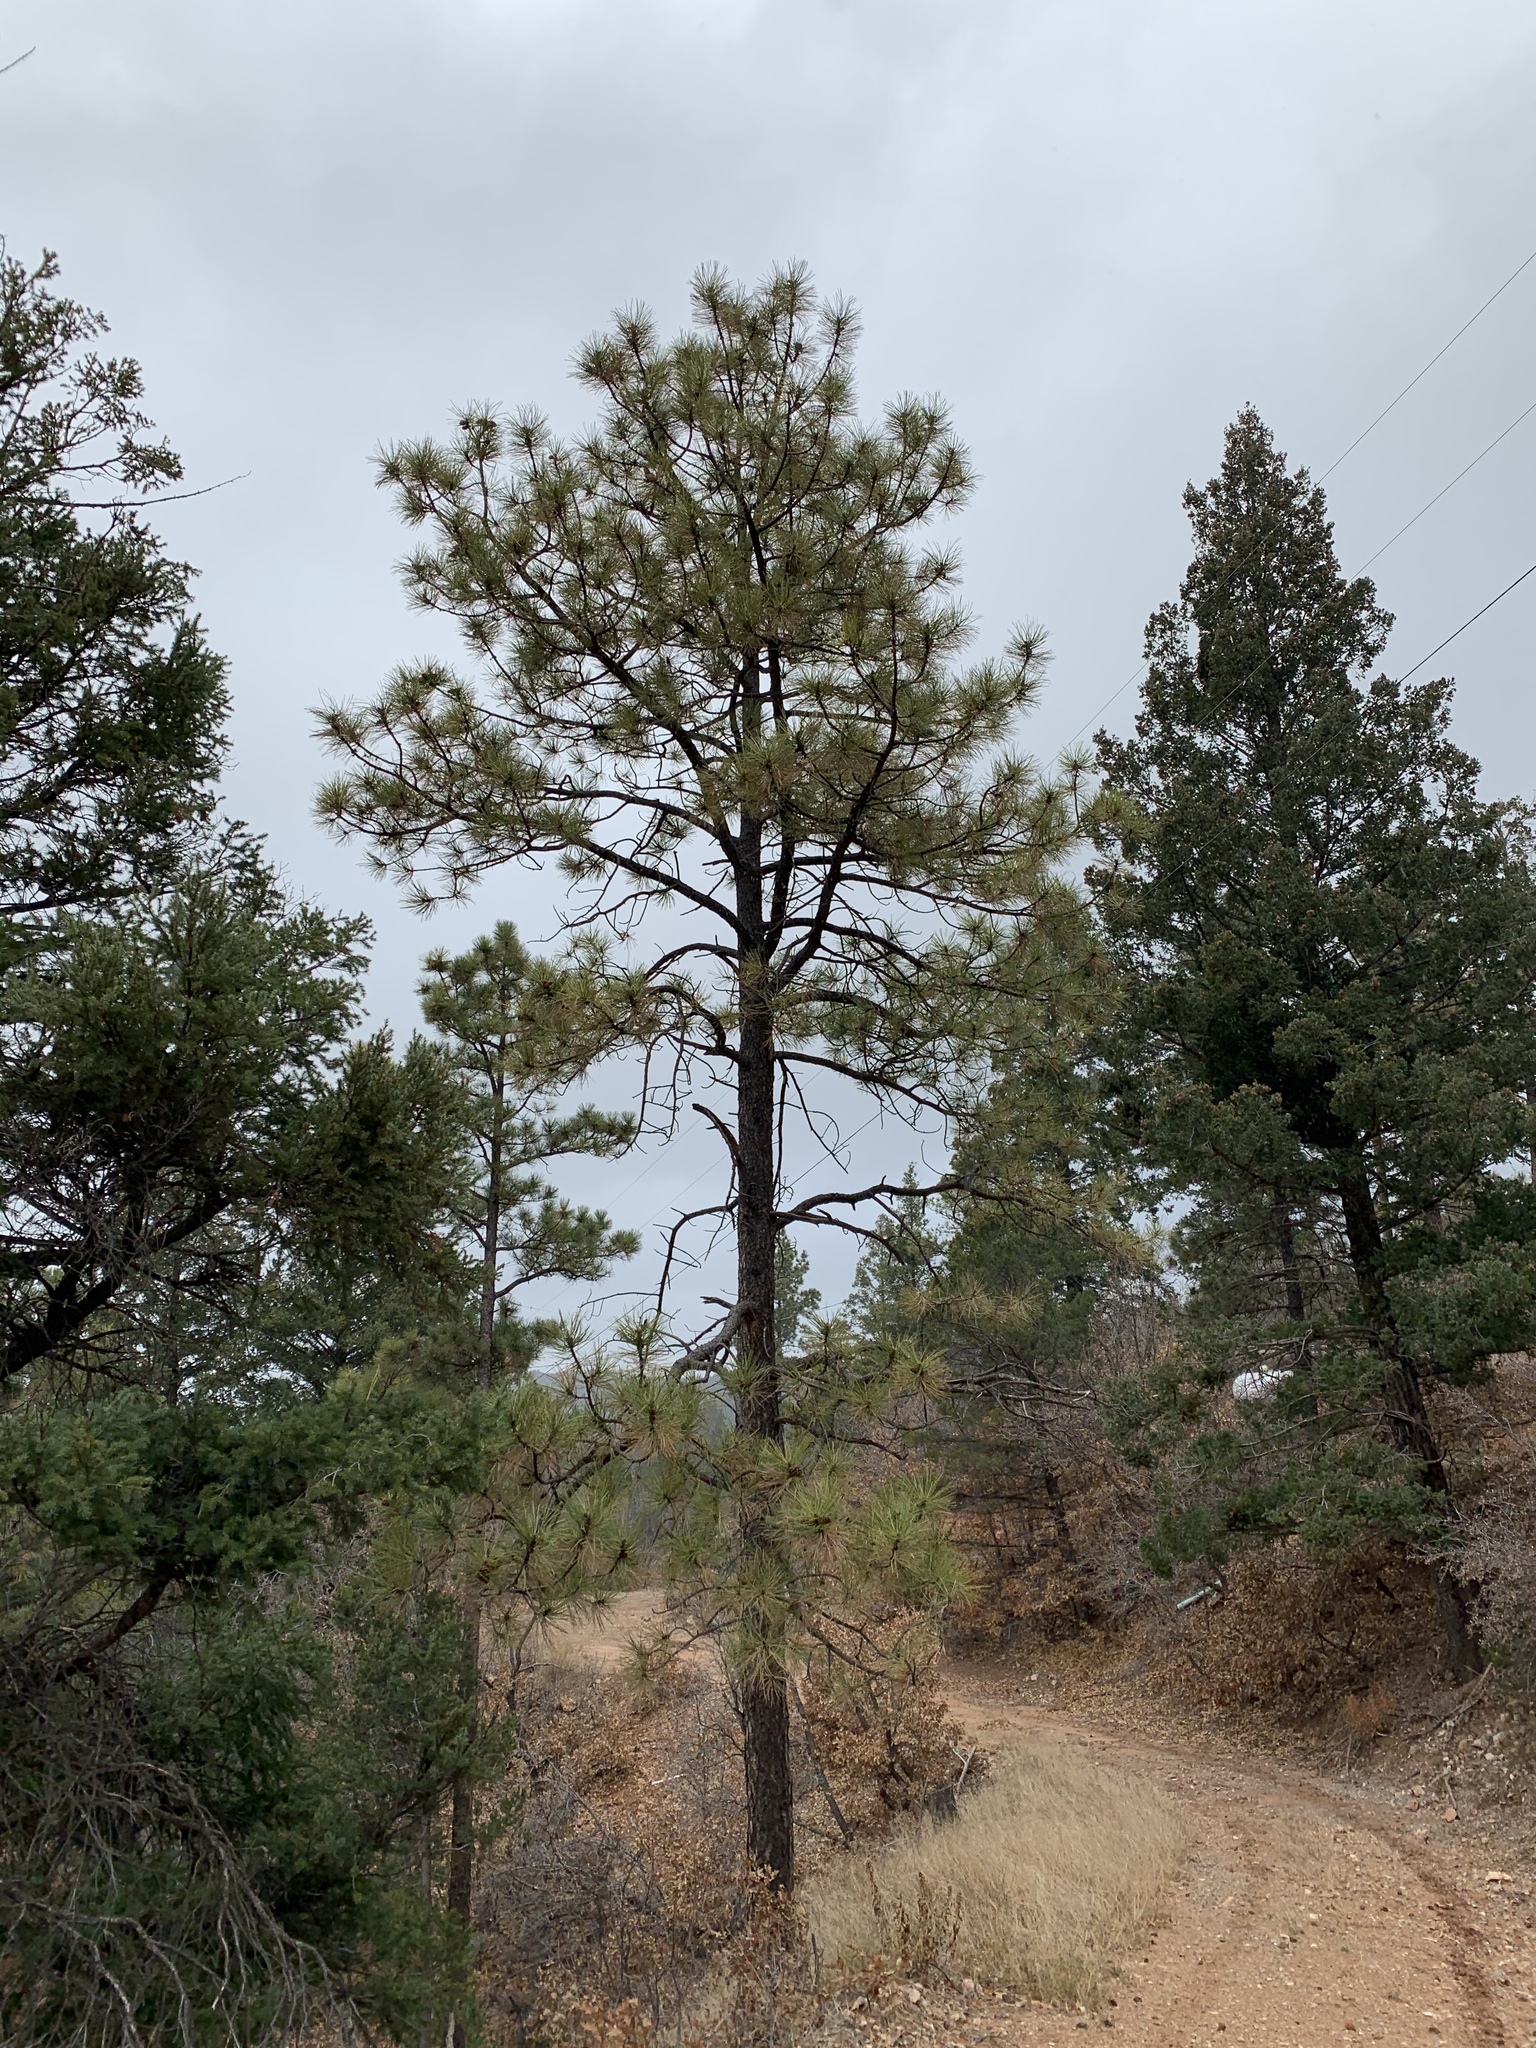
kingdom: Plantae
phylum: Tracheophyta
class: Pinopsida
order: Pinales
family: Pinaceae
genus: Pinus
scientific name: Pinus ponderosa
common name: Western yellow-pine
